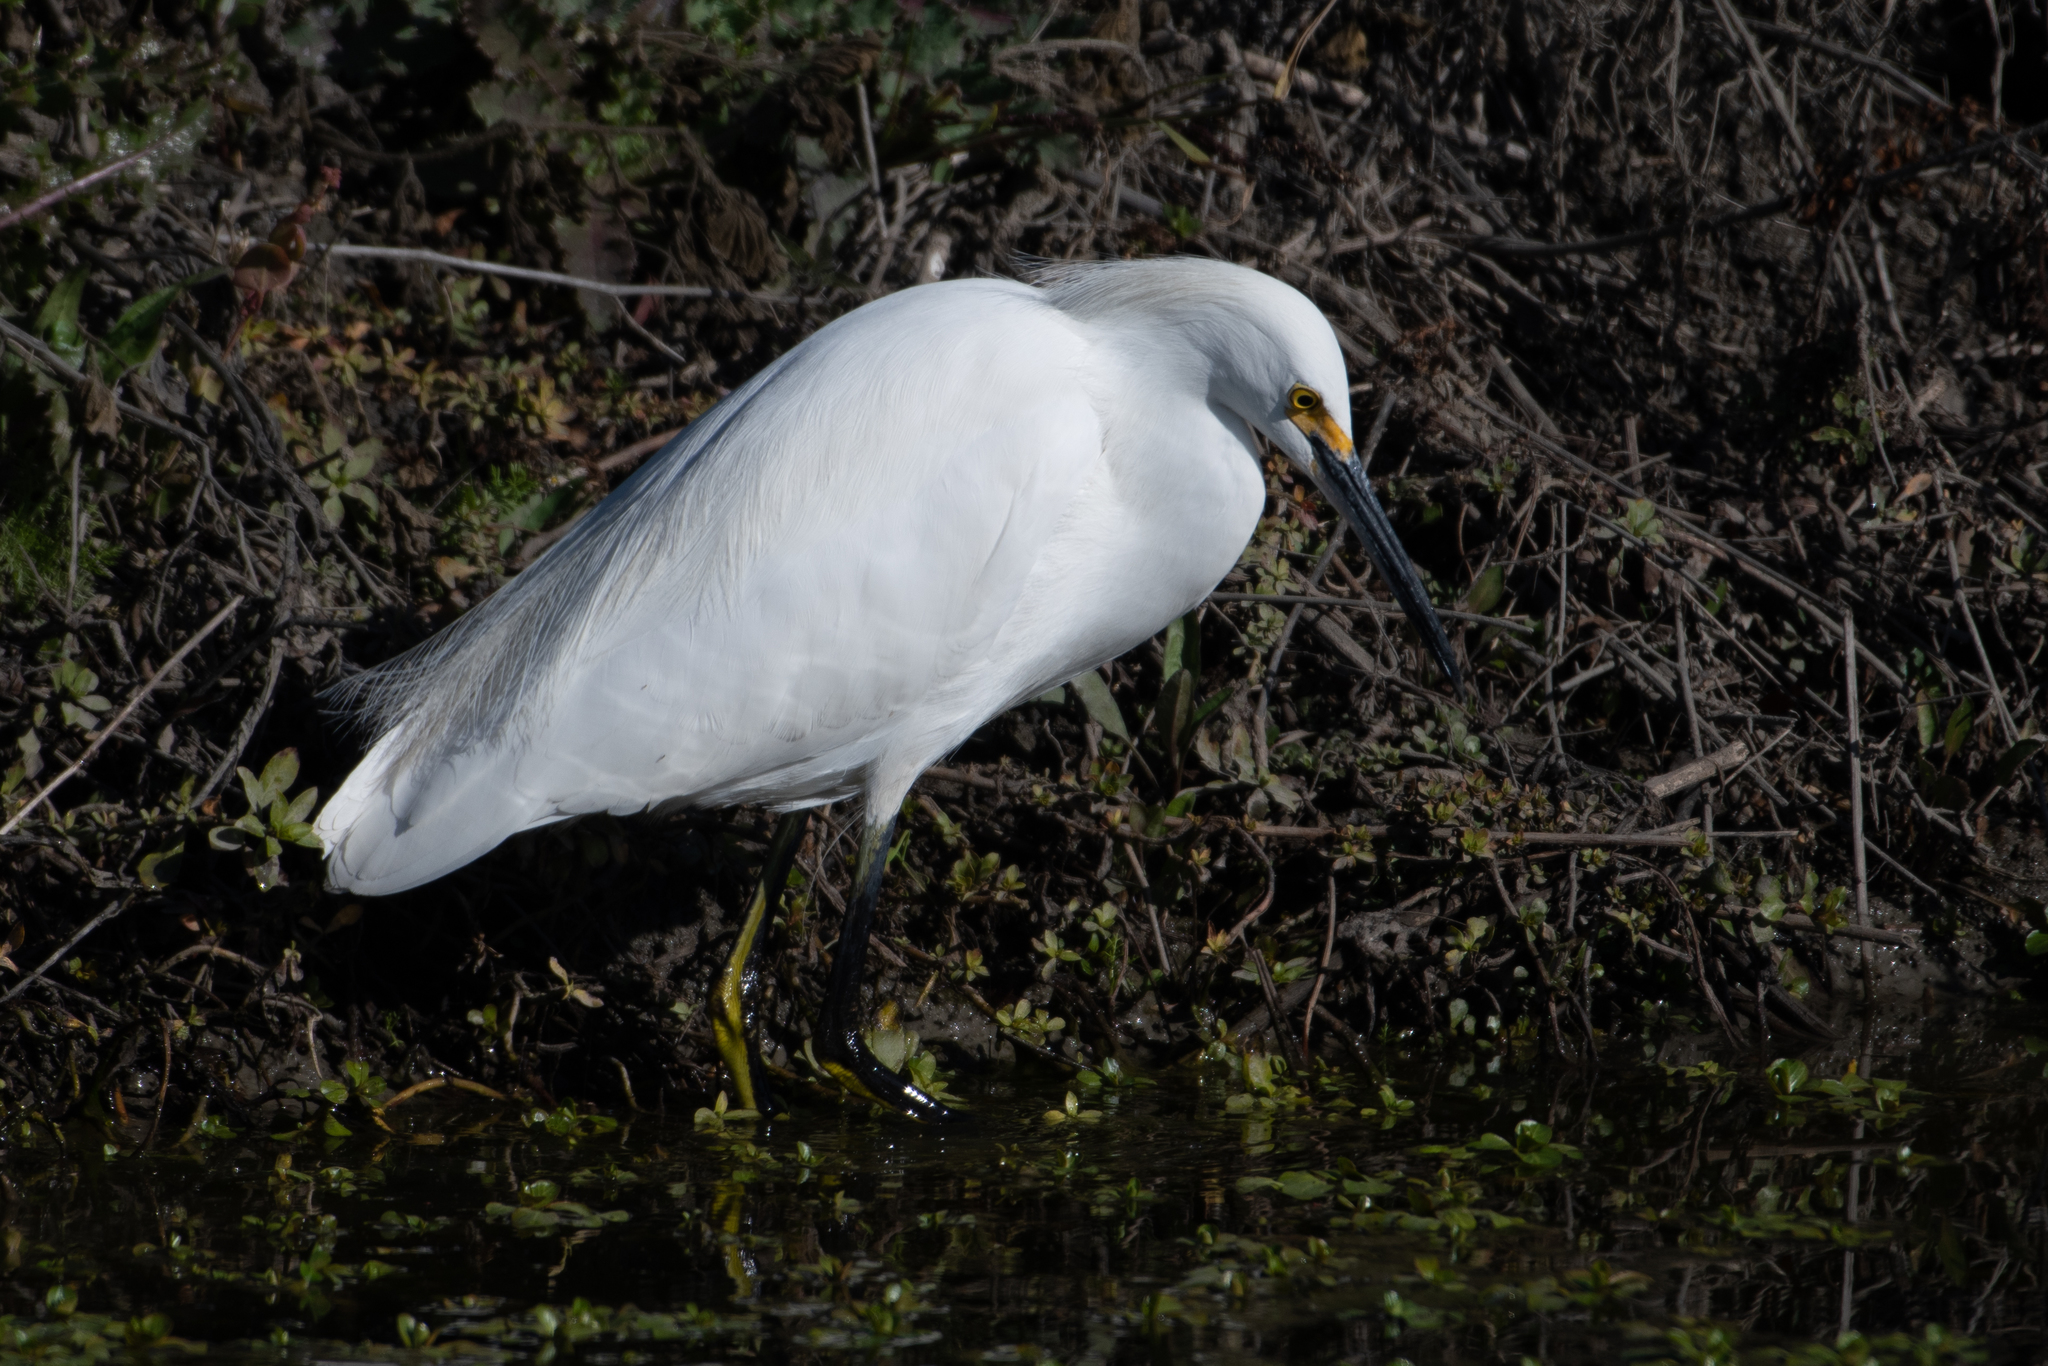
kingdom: Animalia
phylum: Chordata
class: Aves
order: Pelecaniformes
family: Ardeidae
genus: Egretta
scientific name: Egretta thula
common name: Snowy egret
